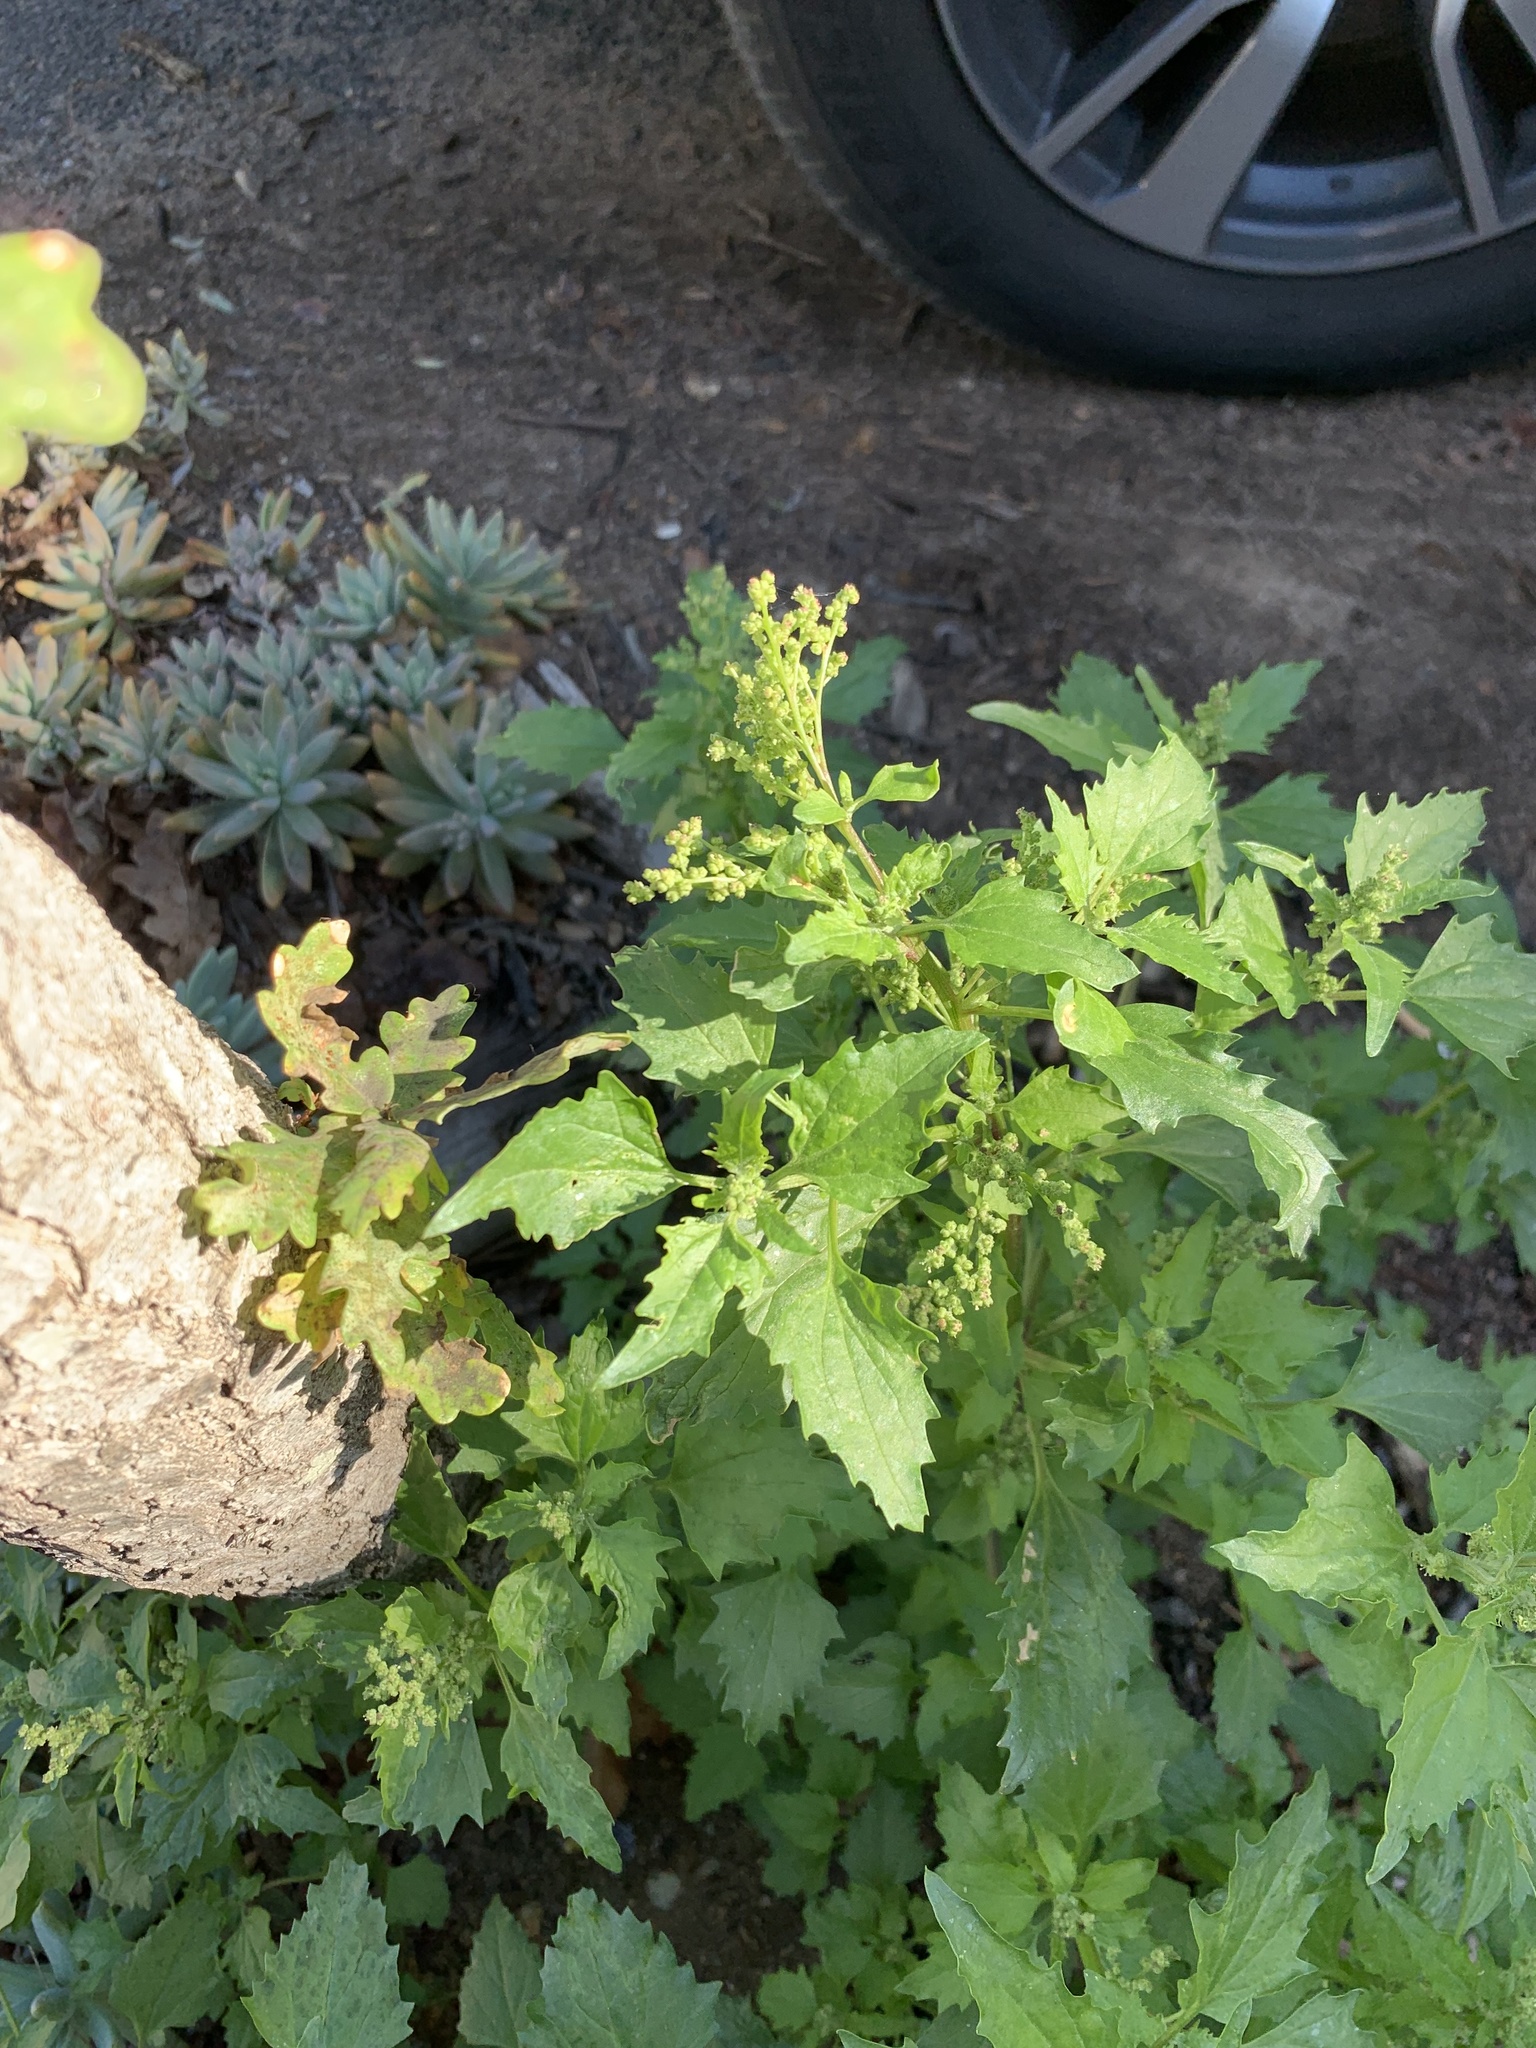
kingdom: Plantae
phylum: Tracheophyta
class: Magnoliopsida
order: Caryophyllales
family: Amaranthaceae
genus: Chenopodiastrum
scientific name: Chenopodiastrum murale
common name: Sowbane
